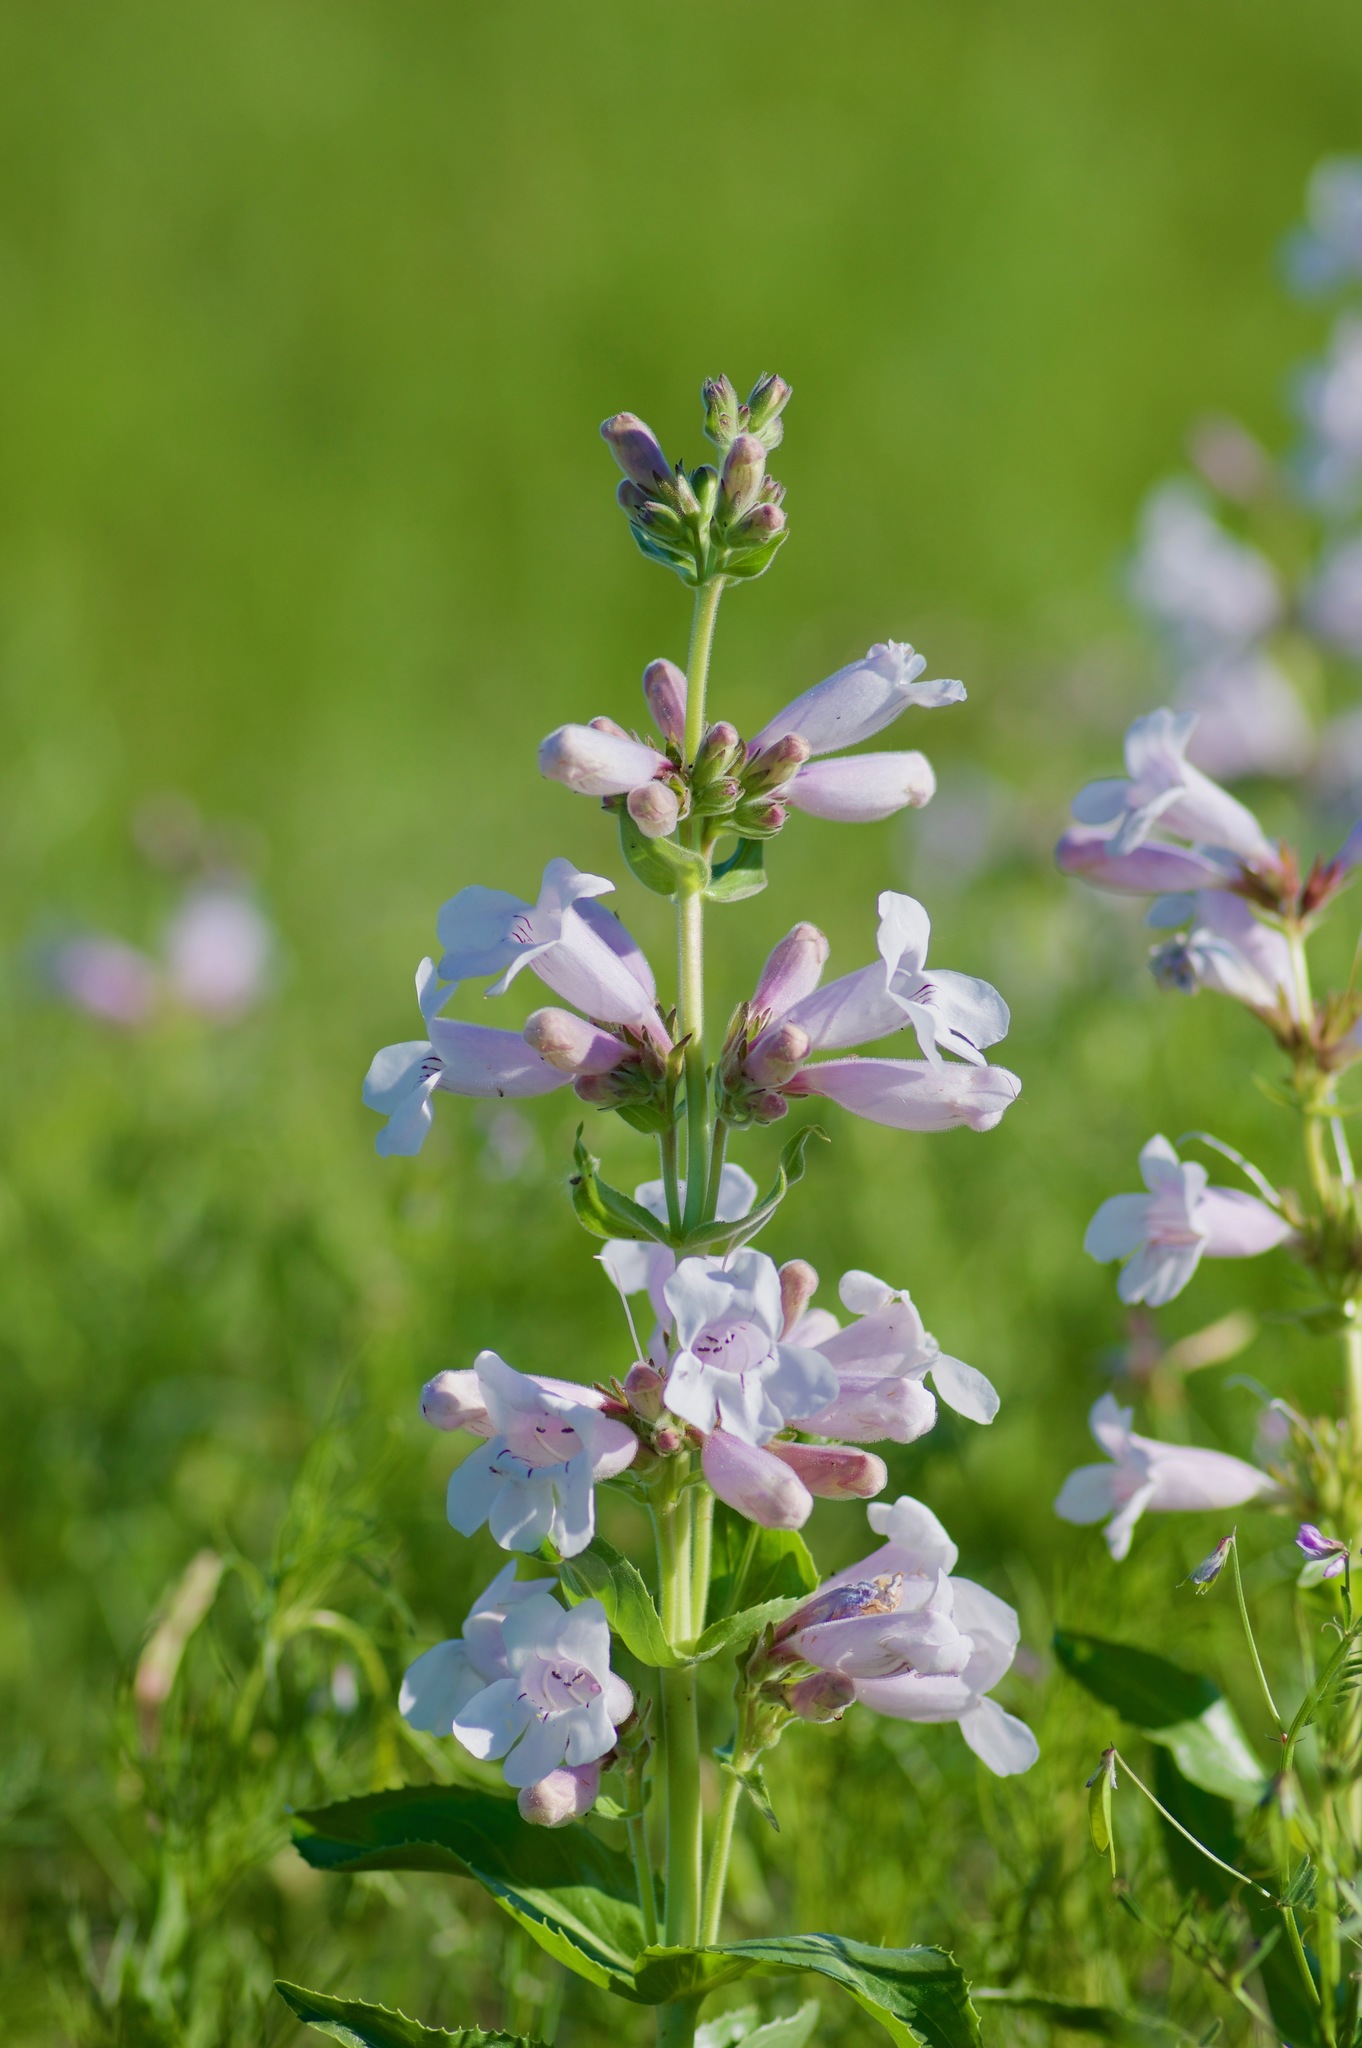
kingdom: Plantae
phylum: Tracheophyta
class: Magnoliopsida
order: Lamiales
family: Plantaginaceae
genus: Penstemon
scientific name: Penstemon cobaea
